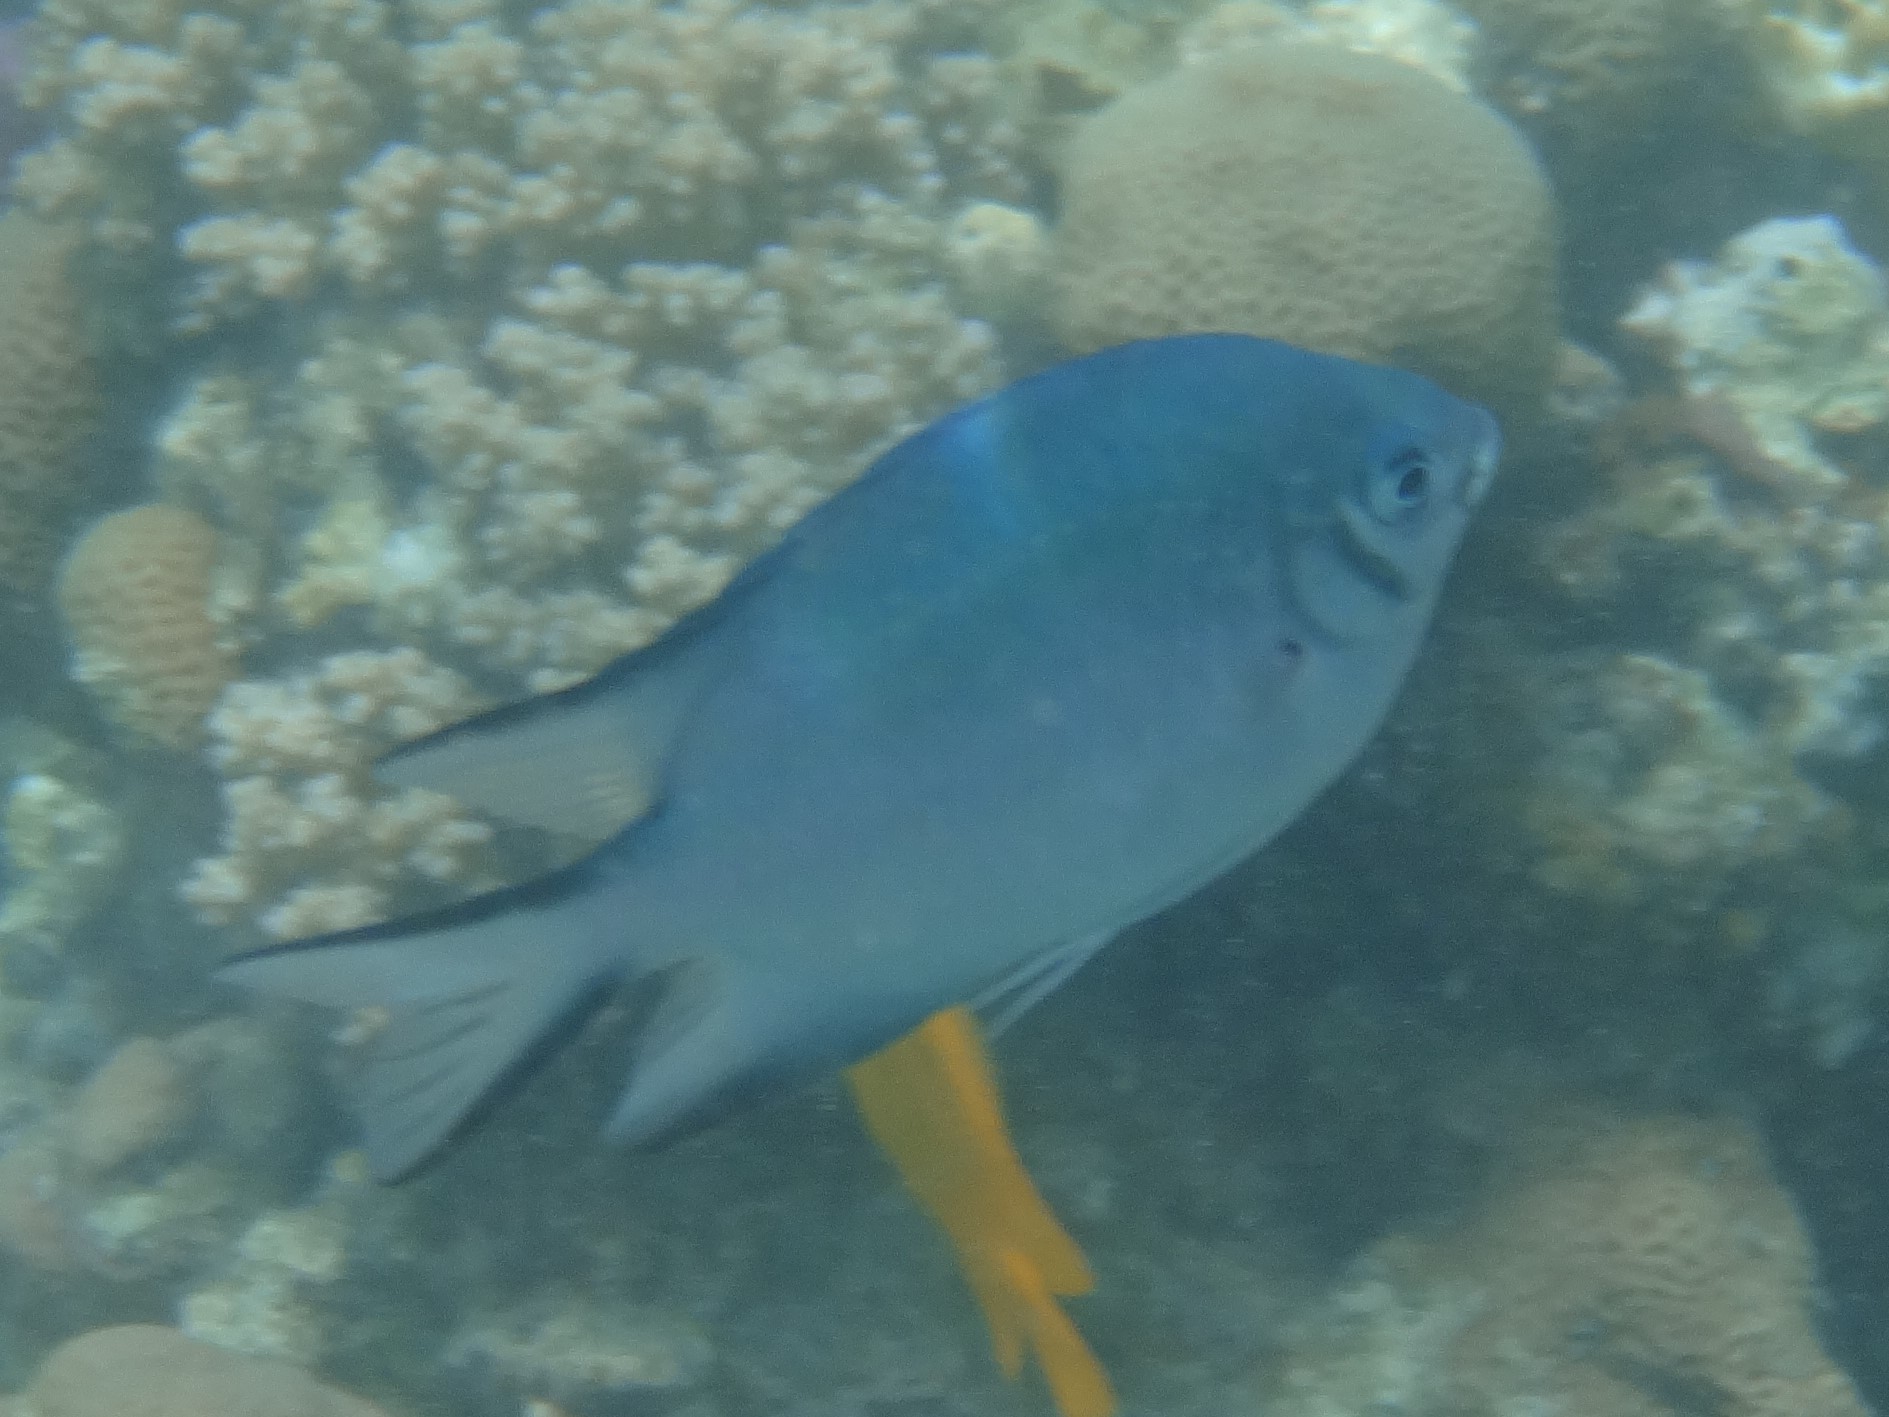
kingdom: Animalia
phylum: Chordata
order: Perciformes
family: Pomacentridae
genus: Amblyglyphidodon
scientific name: Amblyglyphidodon indicus
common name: Maldives damselfish
